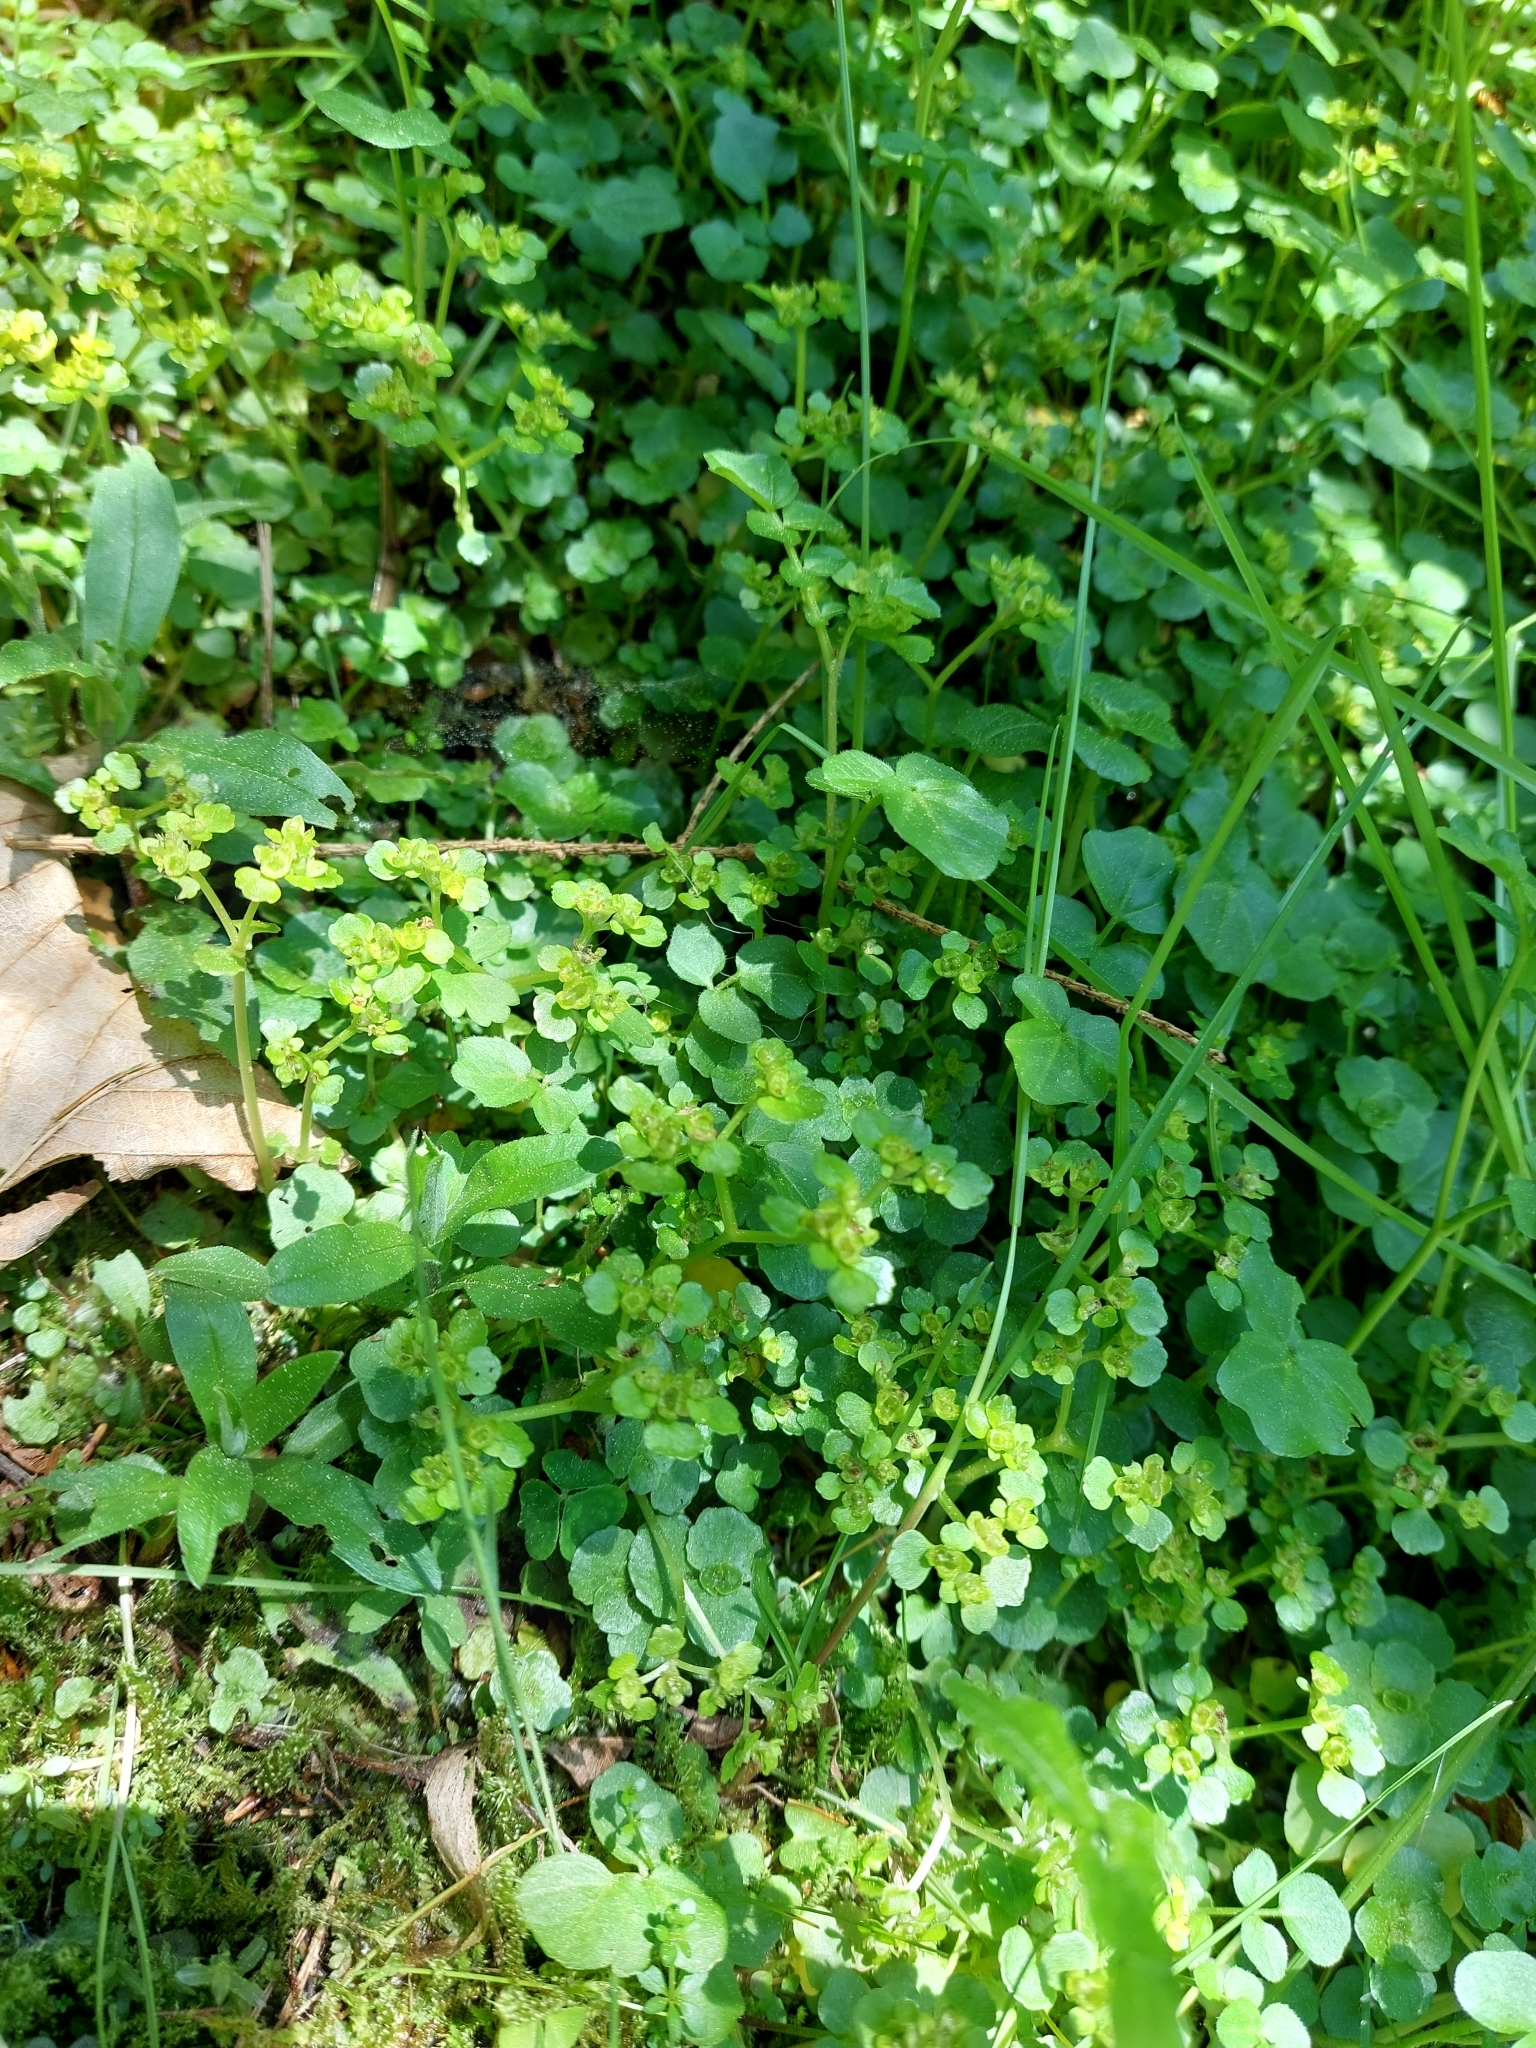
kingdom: Plantae
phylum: Tracheophyta
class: Magnoliopsida
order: Saxifragales
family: Saxifragaceae
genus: Chrysosplenium
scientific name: Chrysosplenium oppositifolium
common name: Opposite-leaved golden-saxifrage
